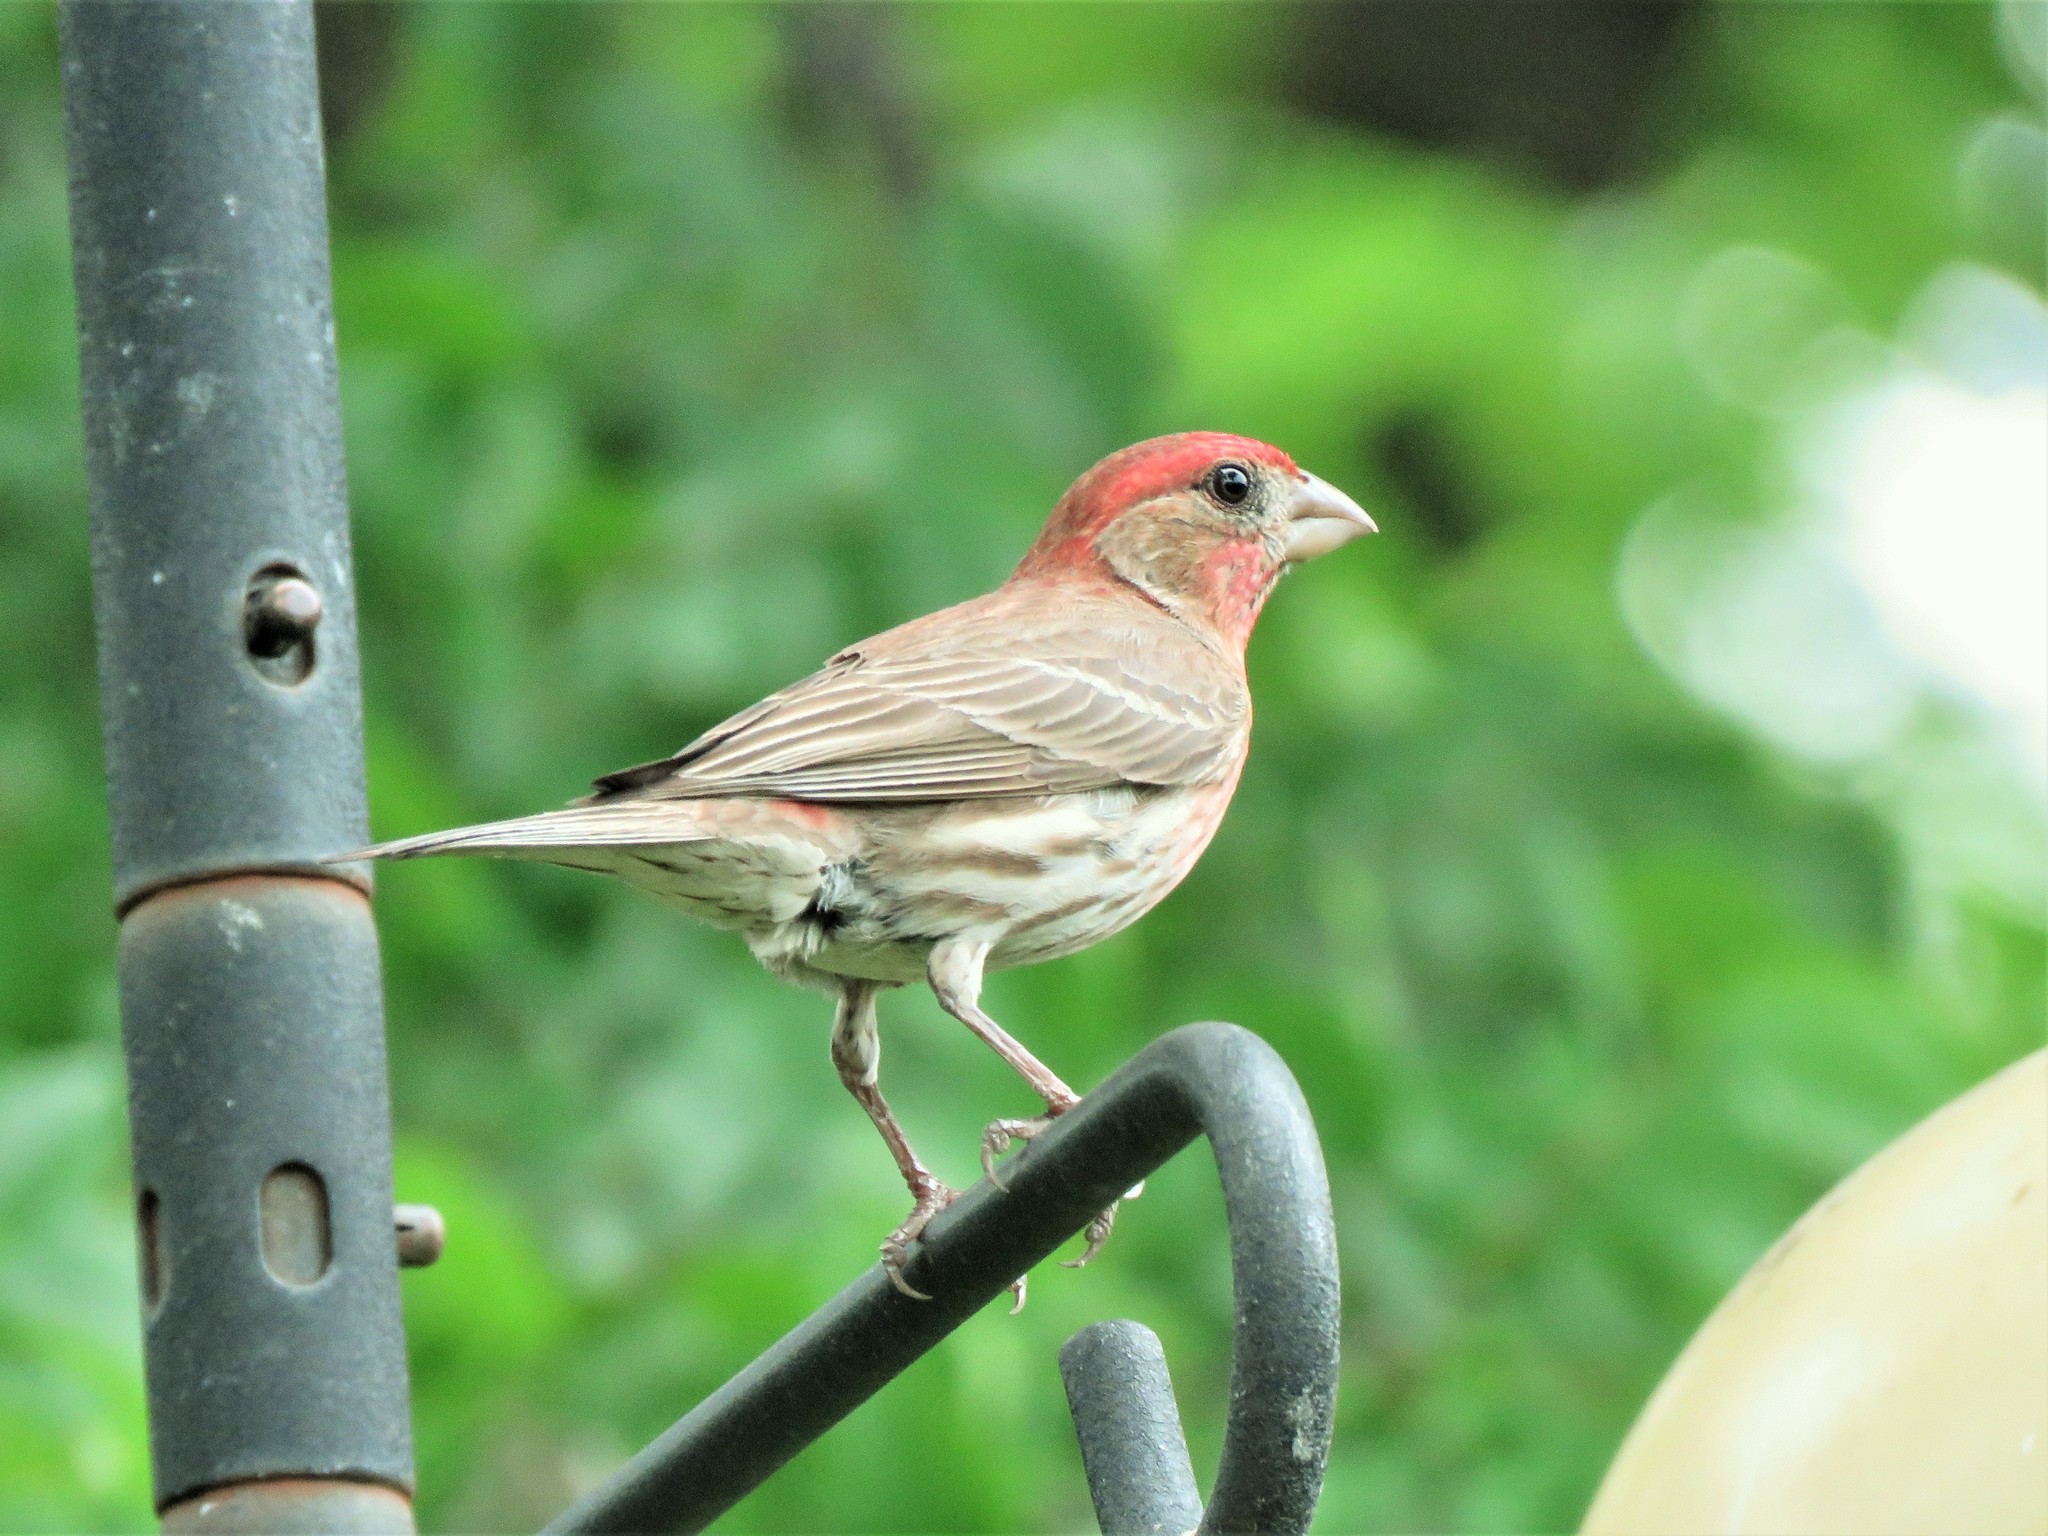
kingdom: Animalia
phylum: Chordata
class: Aves
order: Passeriformes
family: Fringillidae
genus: Haemorhous
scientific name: Haemorhous mexicanus
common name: House finch
